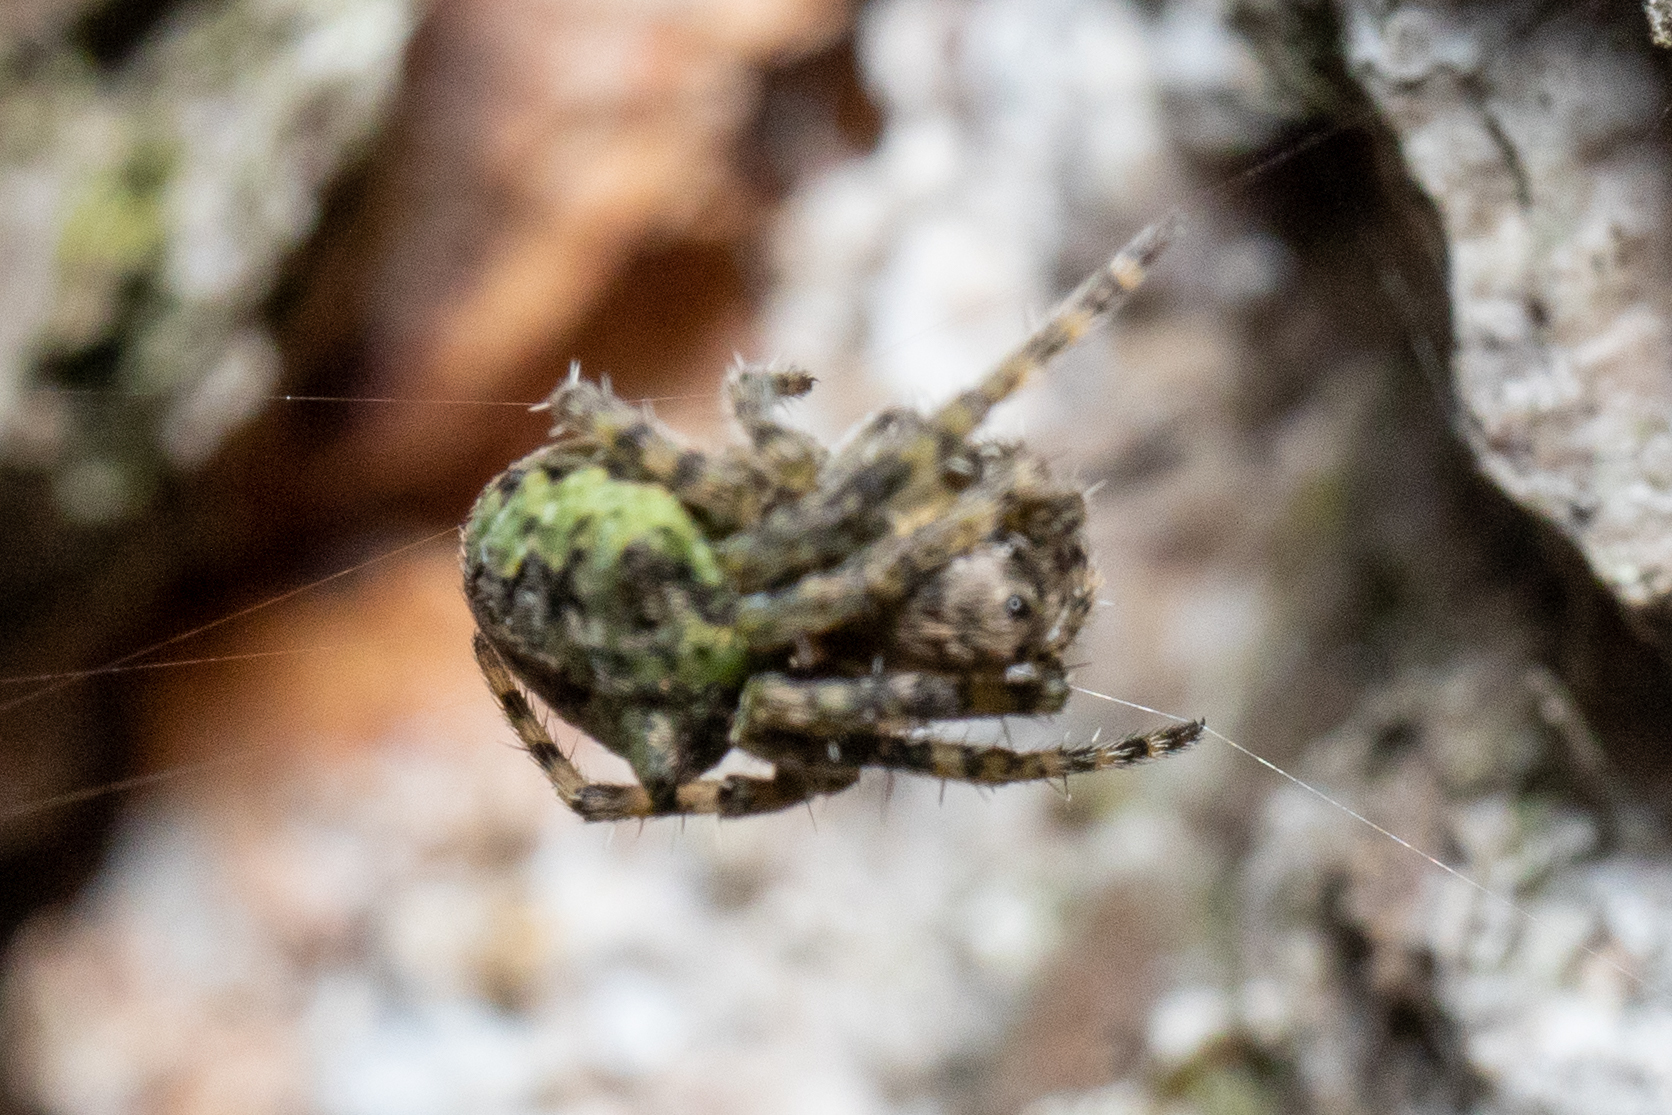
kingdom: Animalia
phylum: Arthropoda
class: Arachnida
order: Araneae
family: Araneidae
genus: Gibbaranea
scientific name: Gibbaranea gibbosa
